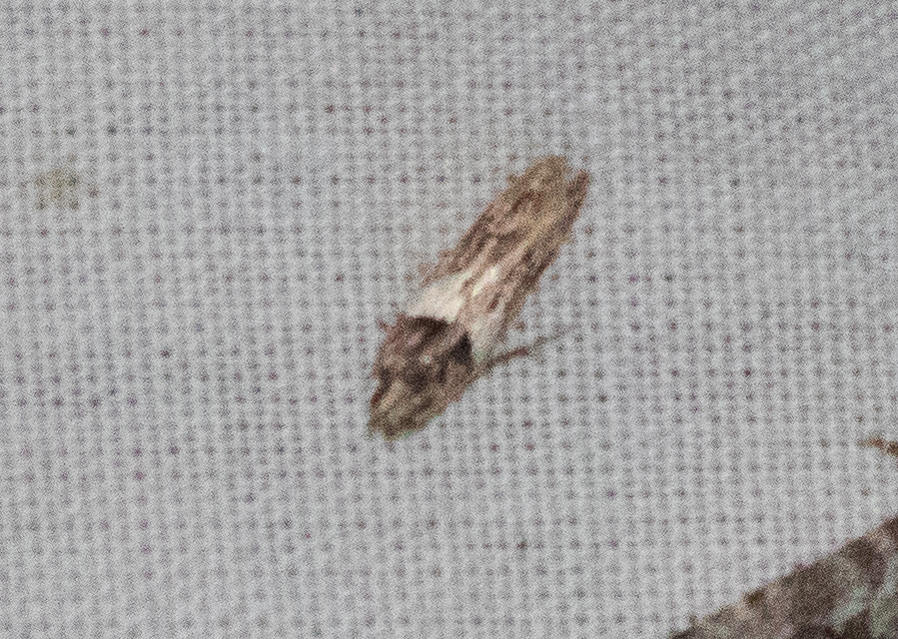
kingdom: Animalia
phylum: Arthropoda
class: Insecta
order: Lepidoptera
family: Gelechiidae
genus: Friseria
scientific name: Friseria acaciella
